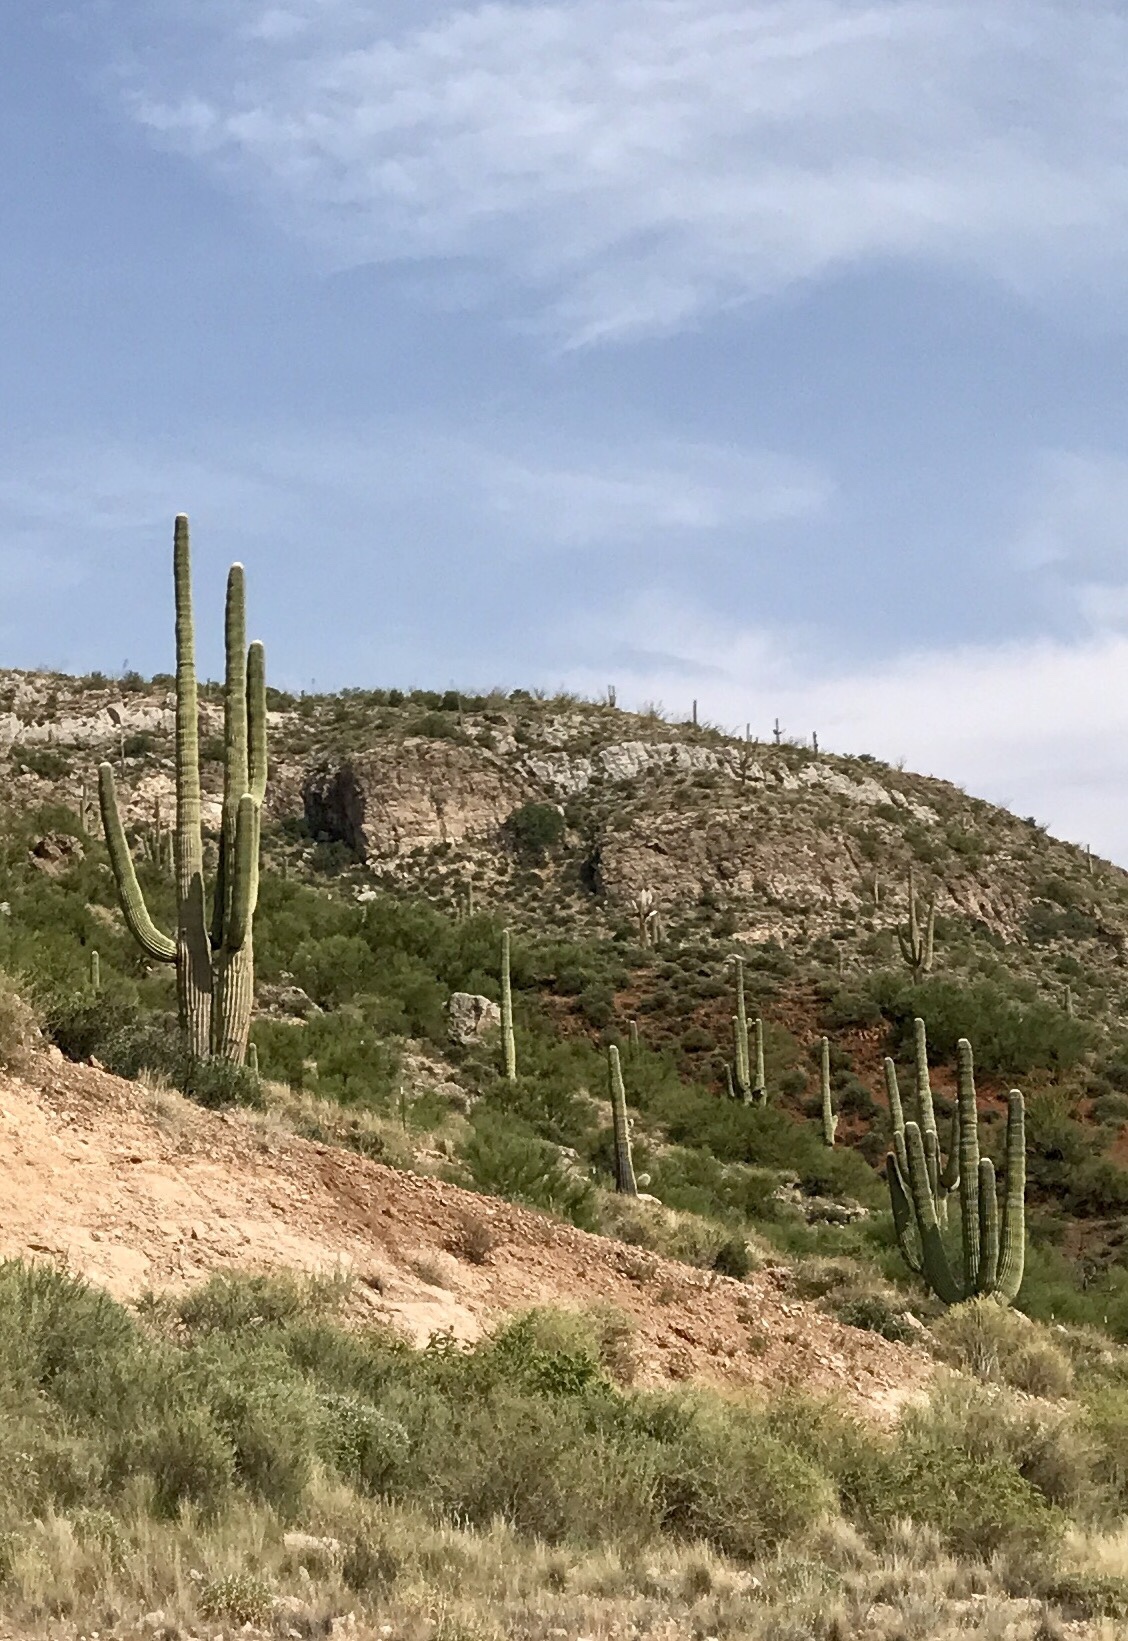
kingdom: Plantae
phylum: Tracheophyta
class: Magnoliopsida
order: Caryophyllales
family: Cactaceae
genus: Carnegiea
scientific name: Carnegiea gigantea
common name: Saguaro
